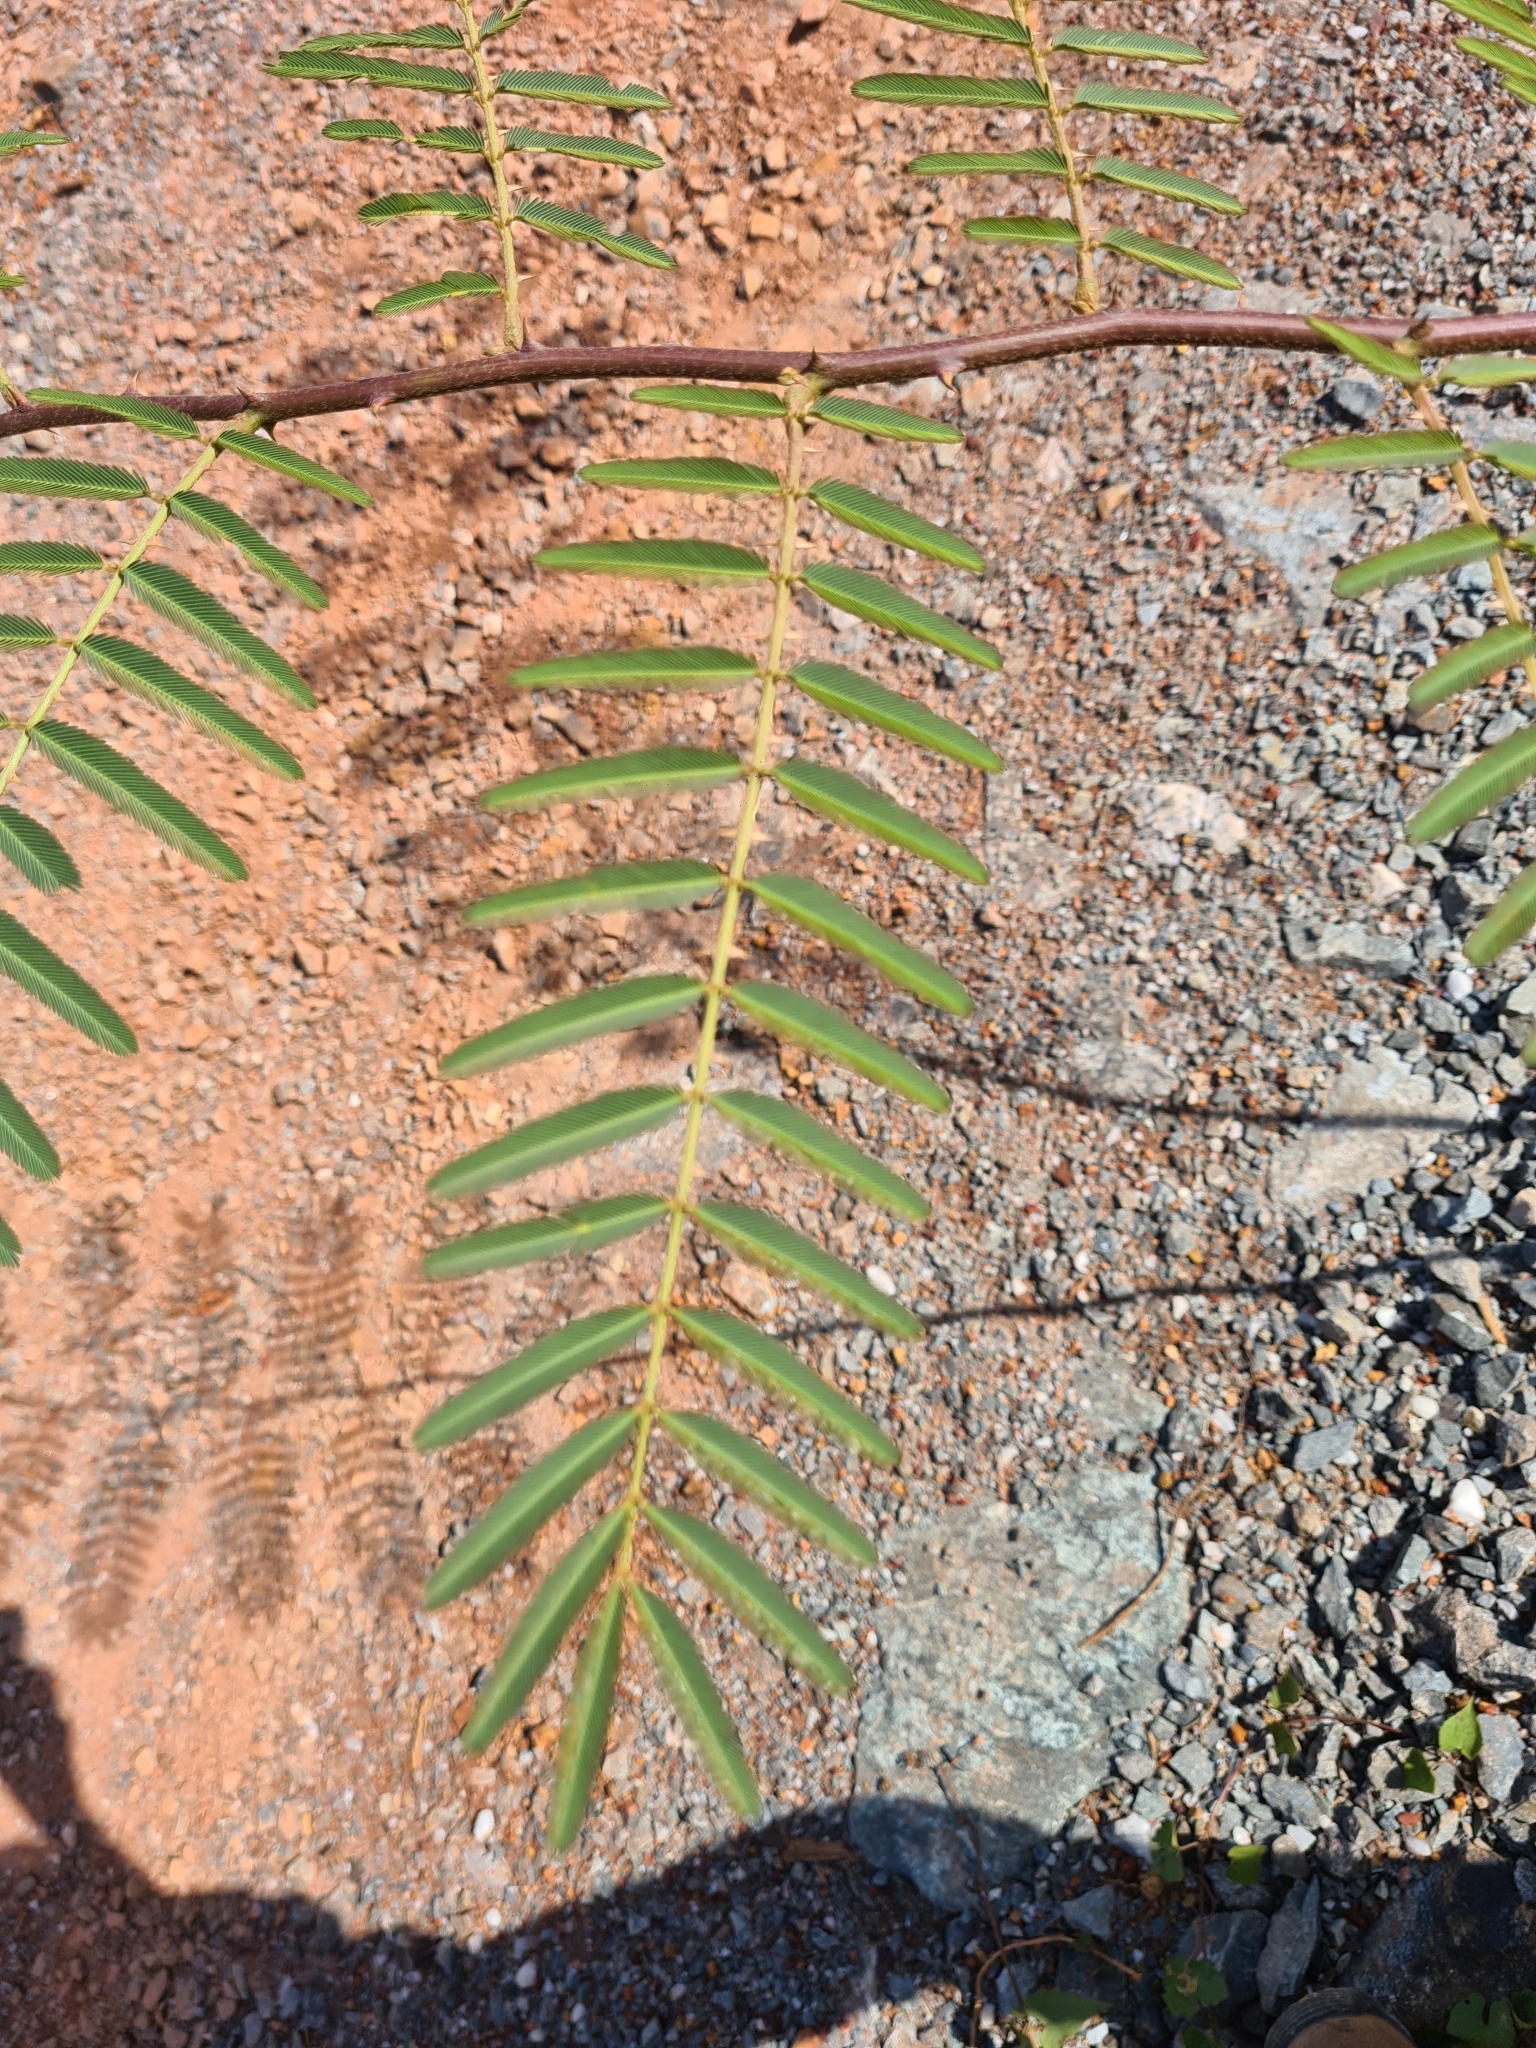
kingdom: Plantae
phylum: Tracheophyta
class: Magnoliopsida
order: Fabales
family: Fabaceae
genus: Mimosa
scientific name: Mimosa pigra
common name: Black mimosa
